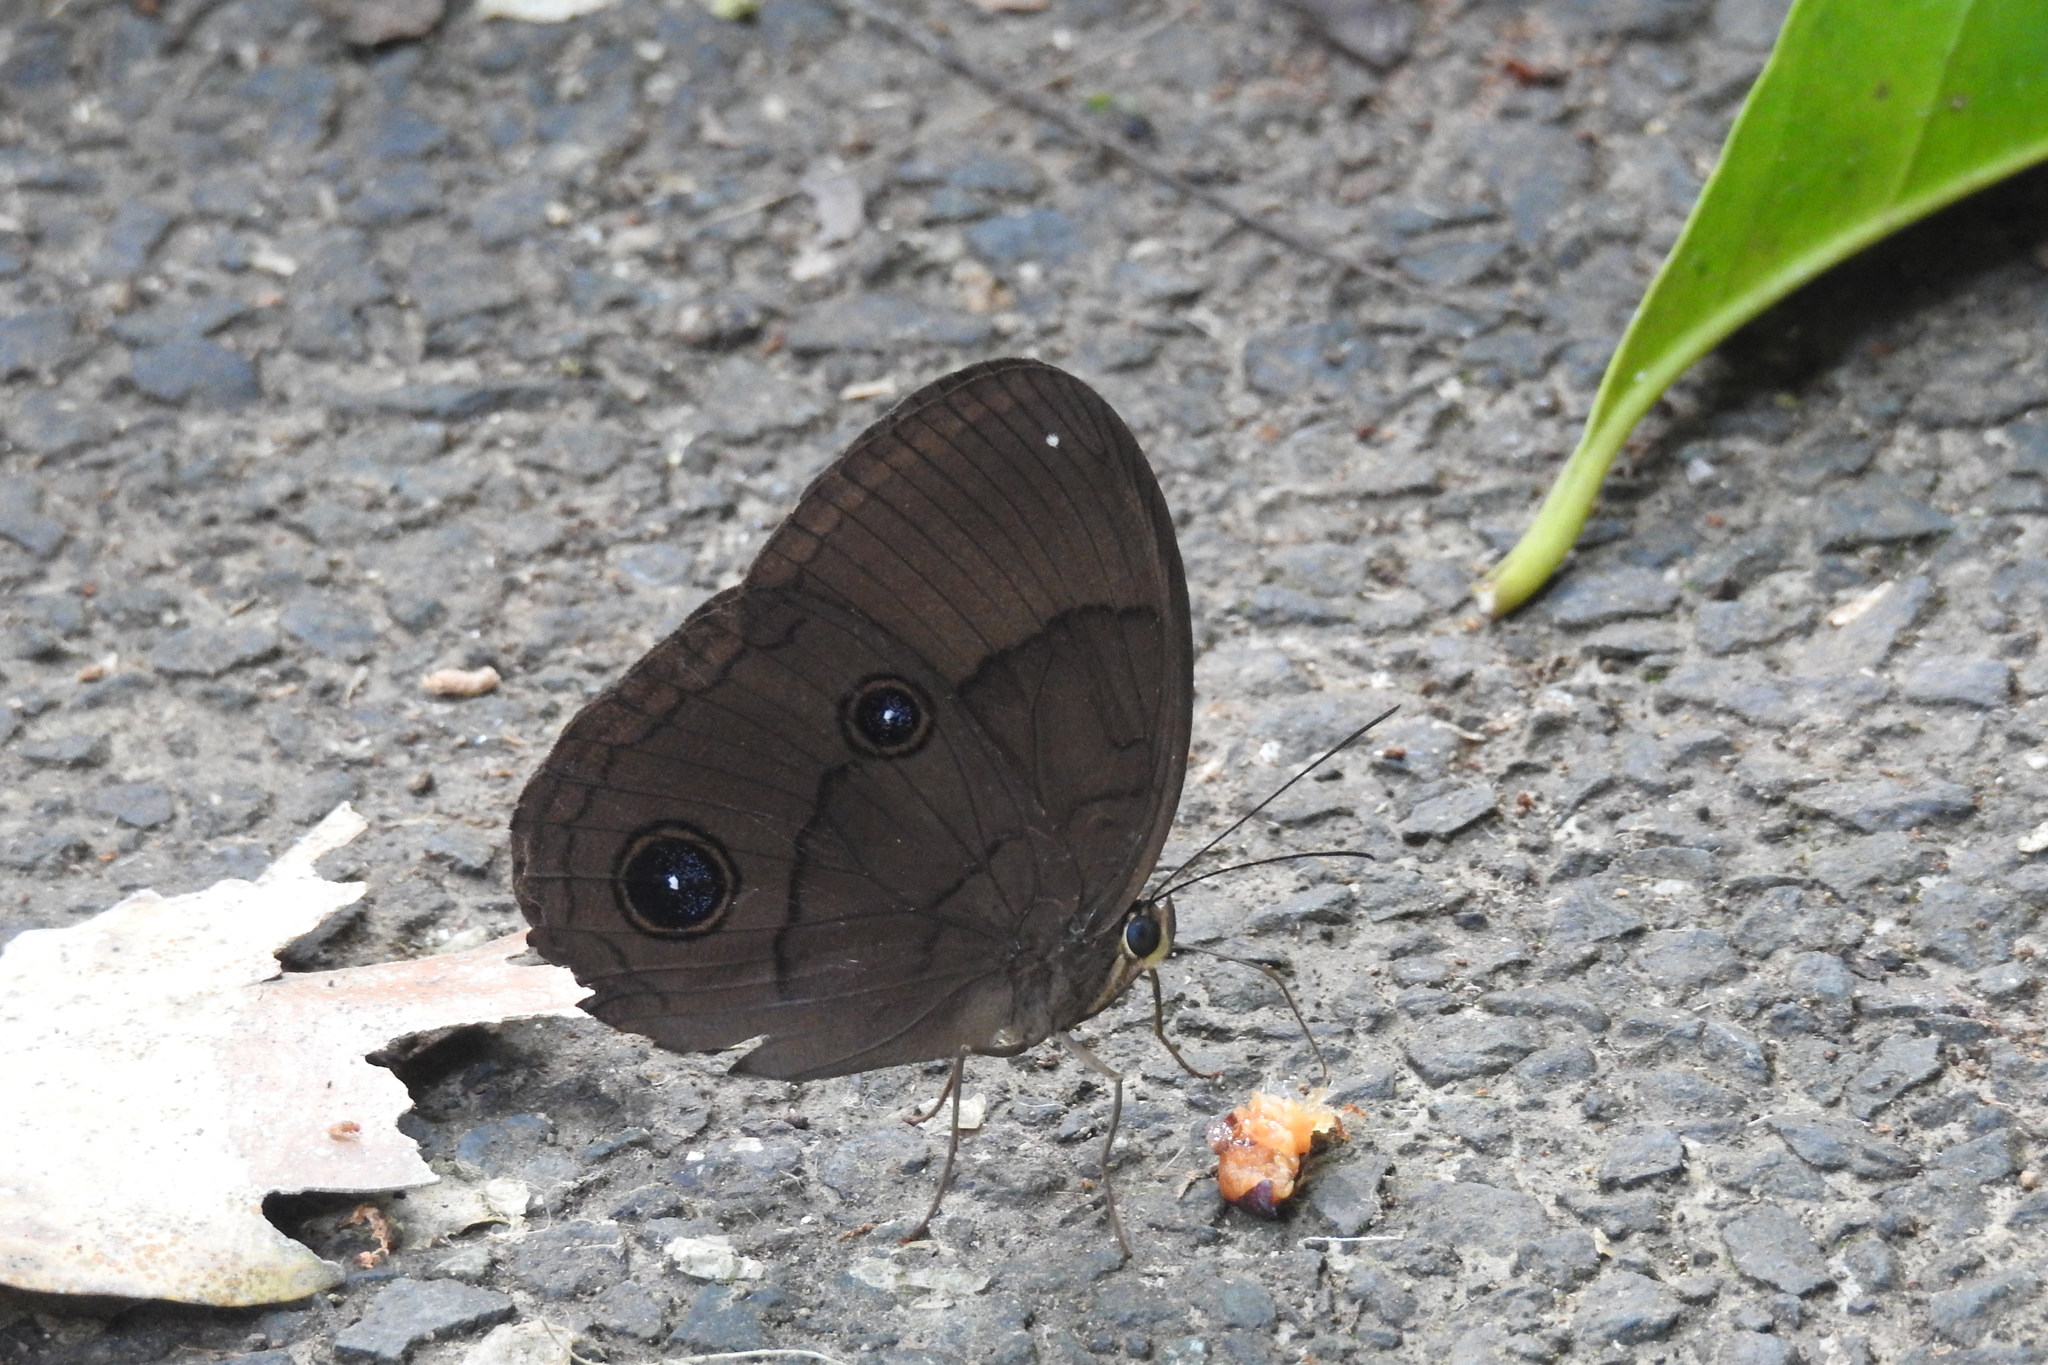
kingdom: Animalia
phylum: Arthropoda
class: Insecta
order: Lepidoptera
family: Nymphalidae
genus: Faunis
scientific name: Faunis phaon
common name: Faun butterfly
